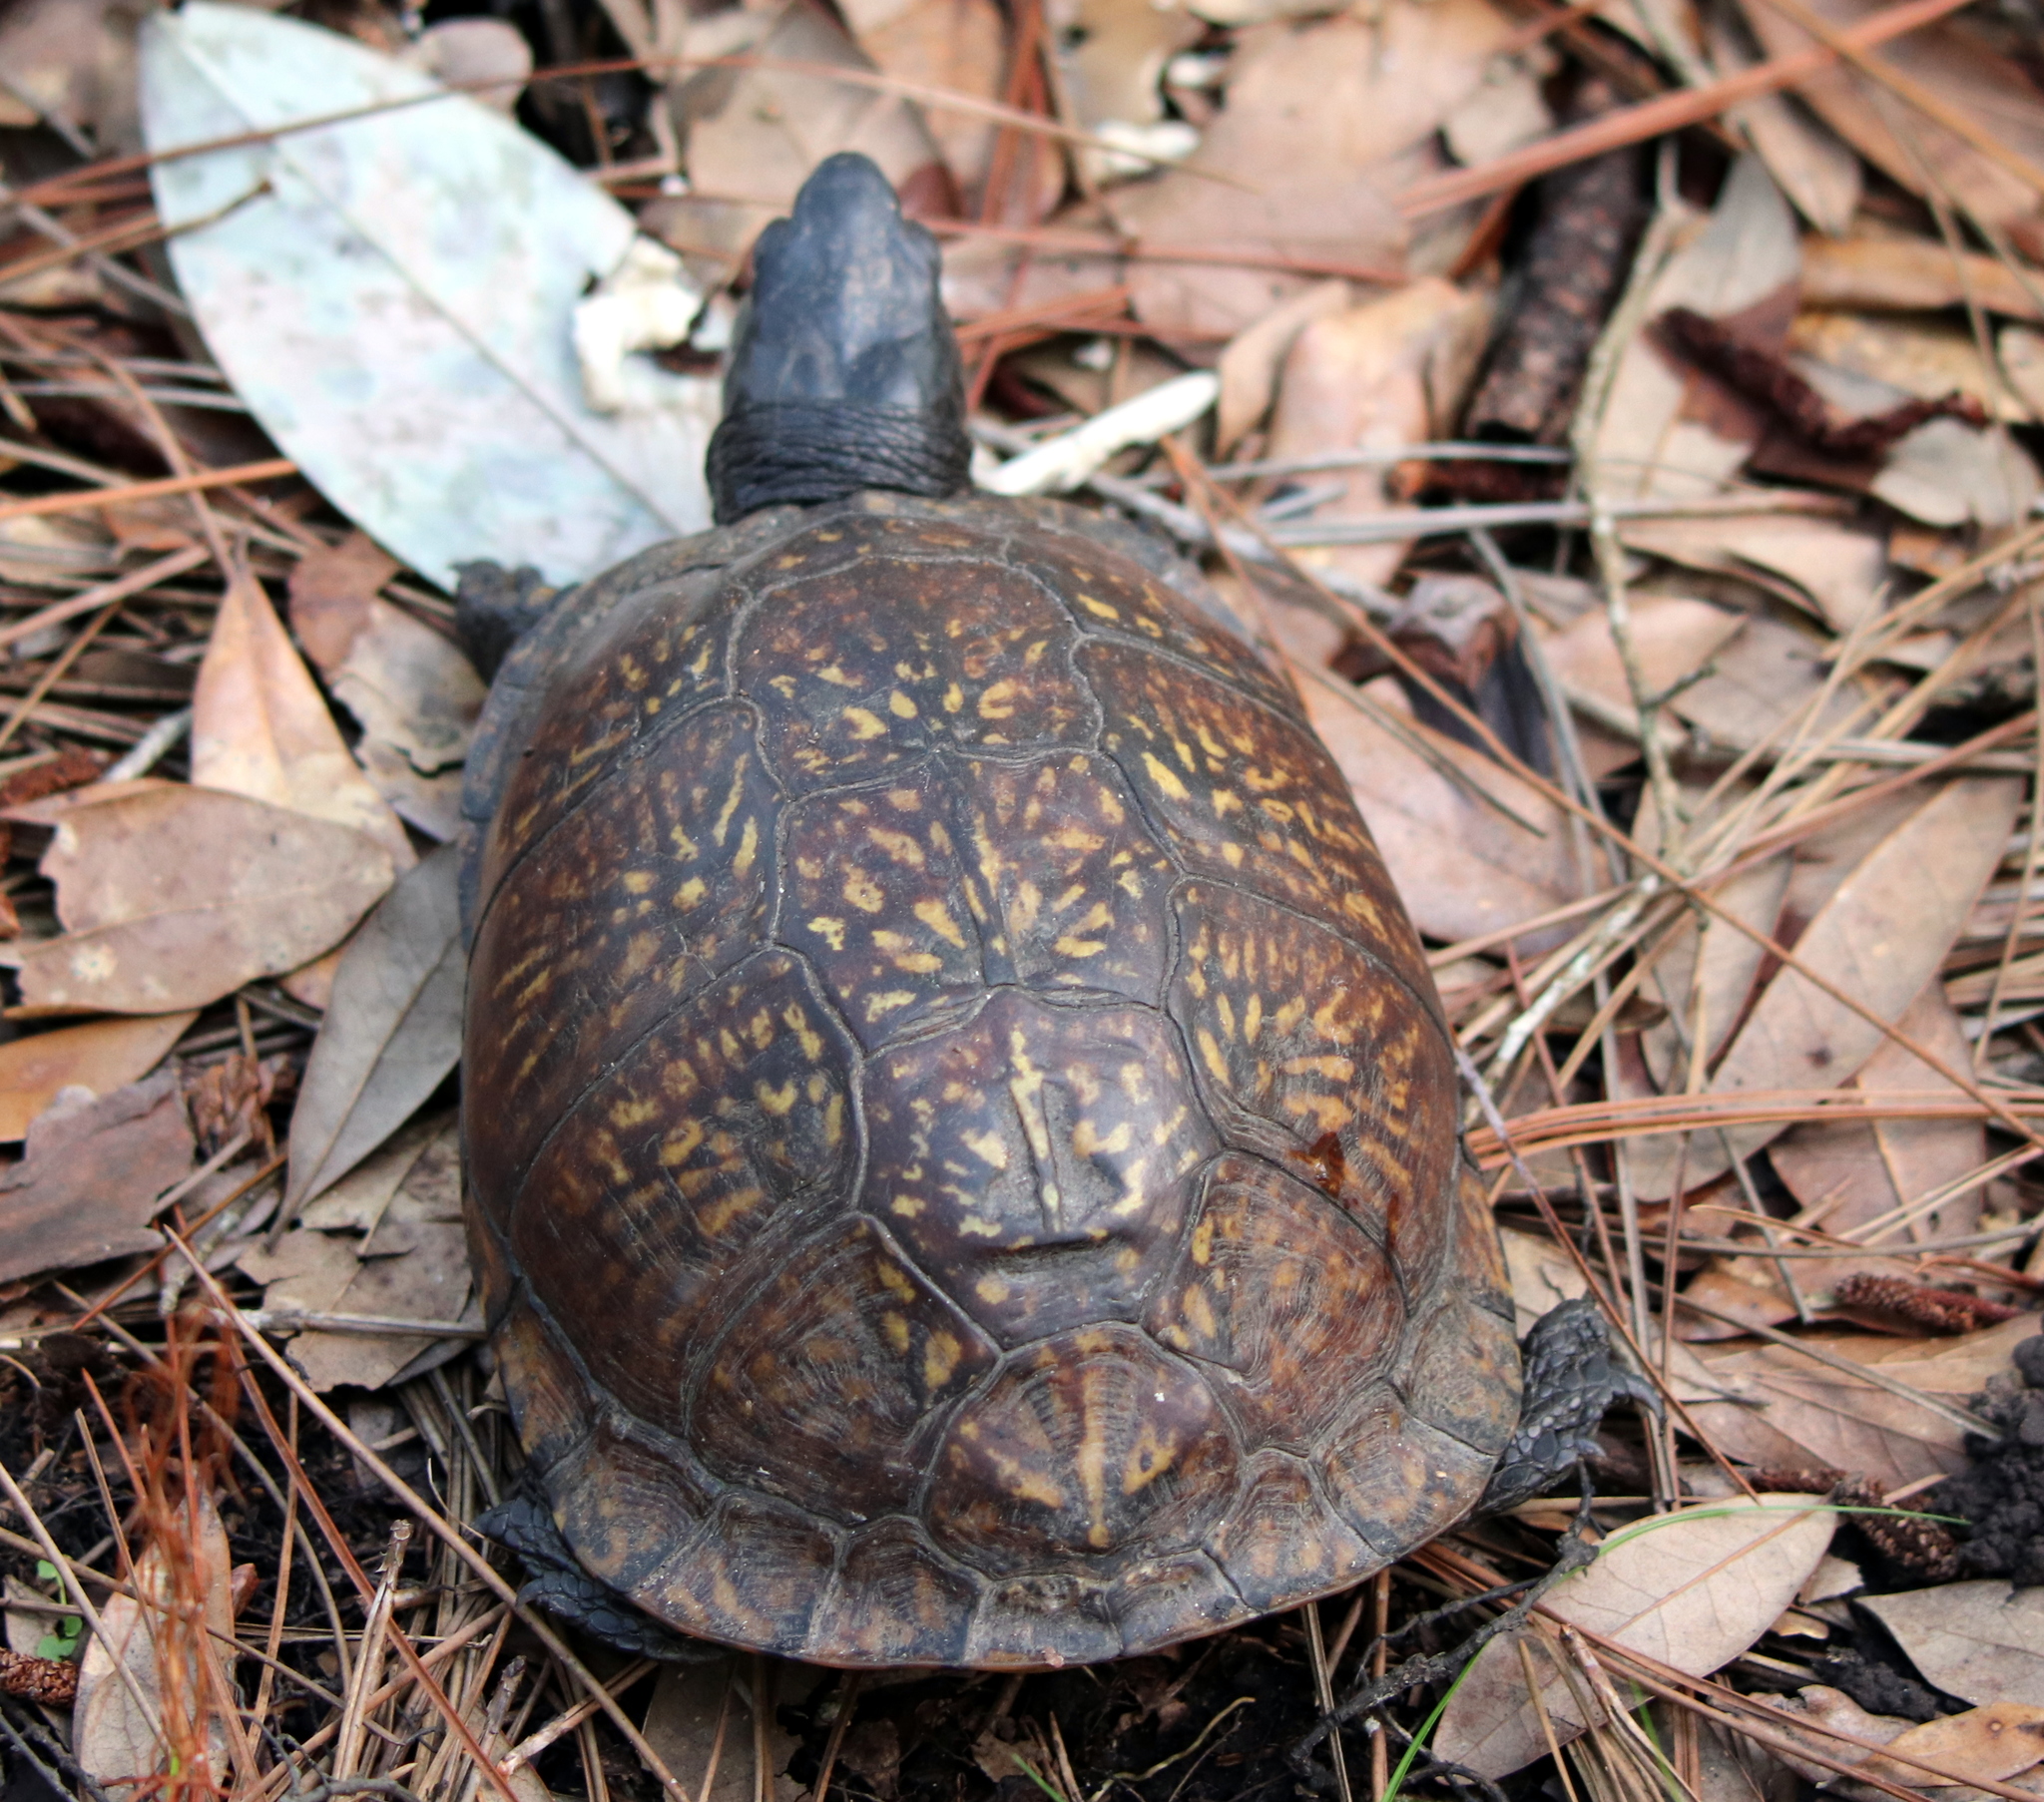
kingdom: Animalia
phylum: Chordata
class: Testudines
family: Emydidae
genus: Terrapene
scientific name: Terrapene carolina
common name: Common box turtle
